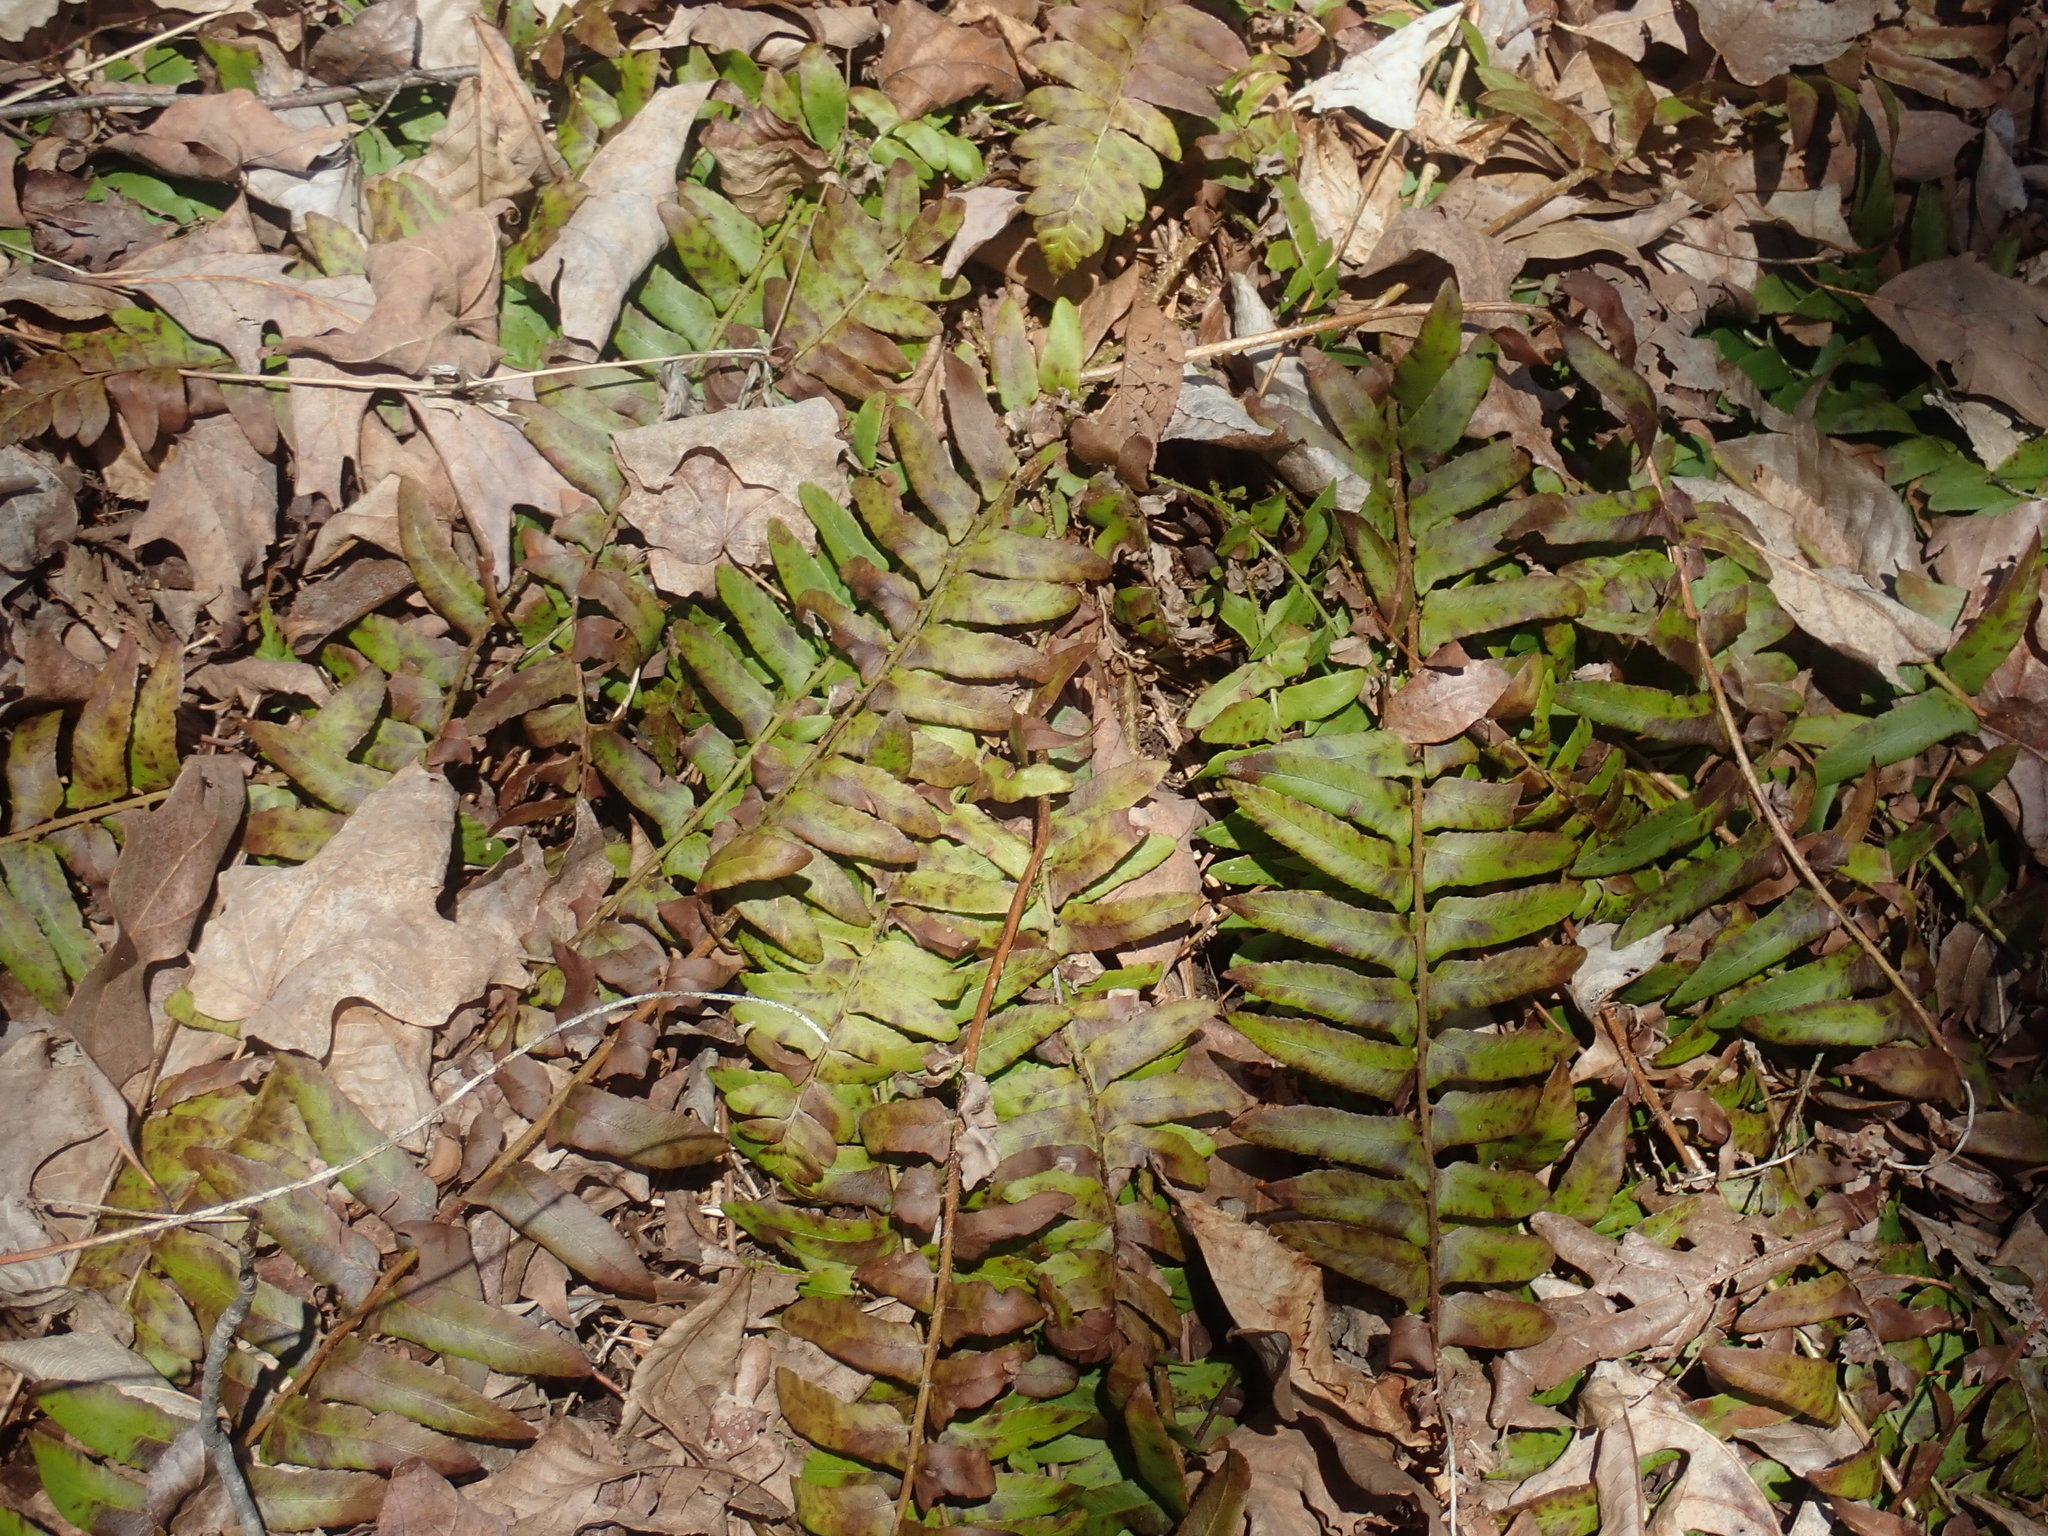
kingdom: Plantae
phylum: Tracheophyta
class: Polypodiopsida
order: Polypodiales
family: Dryopteridaceae
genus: Polystichum
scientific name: Polystichum acrostichoides
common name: Christmas fern
